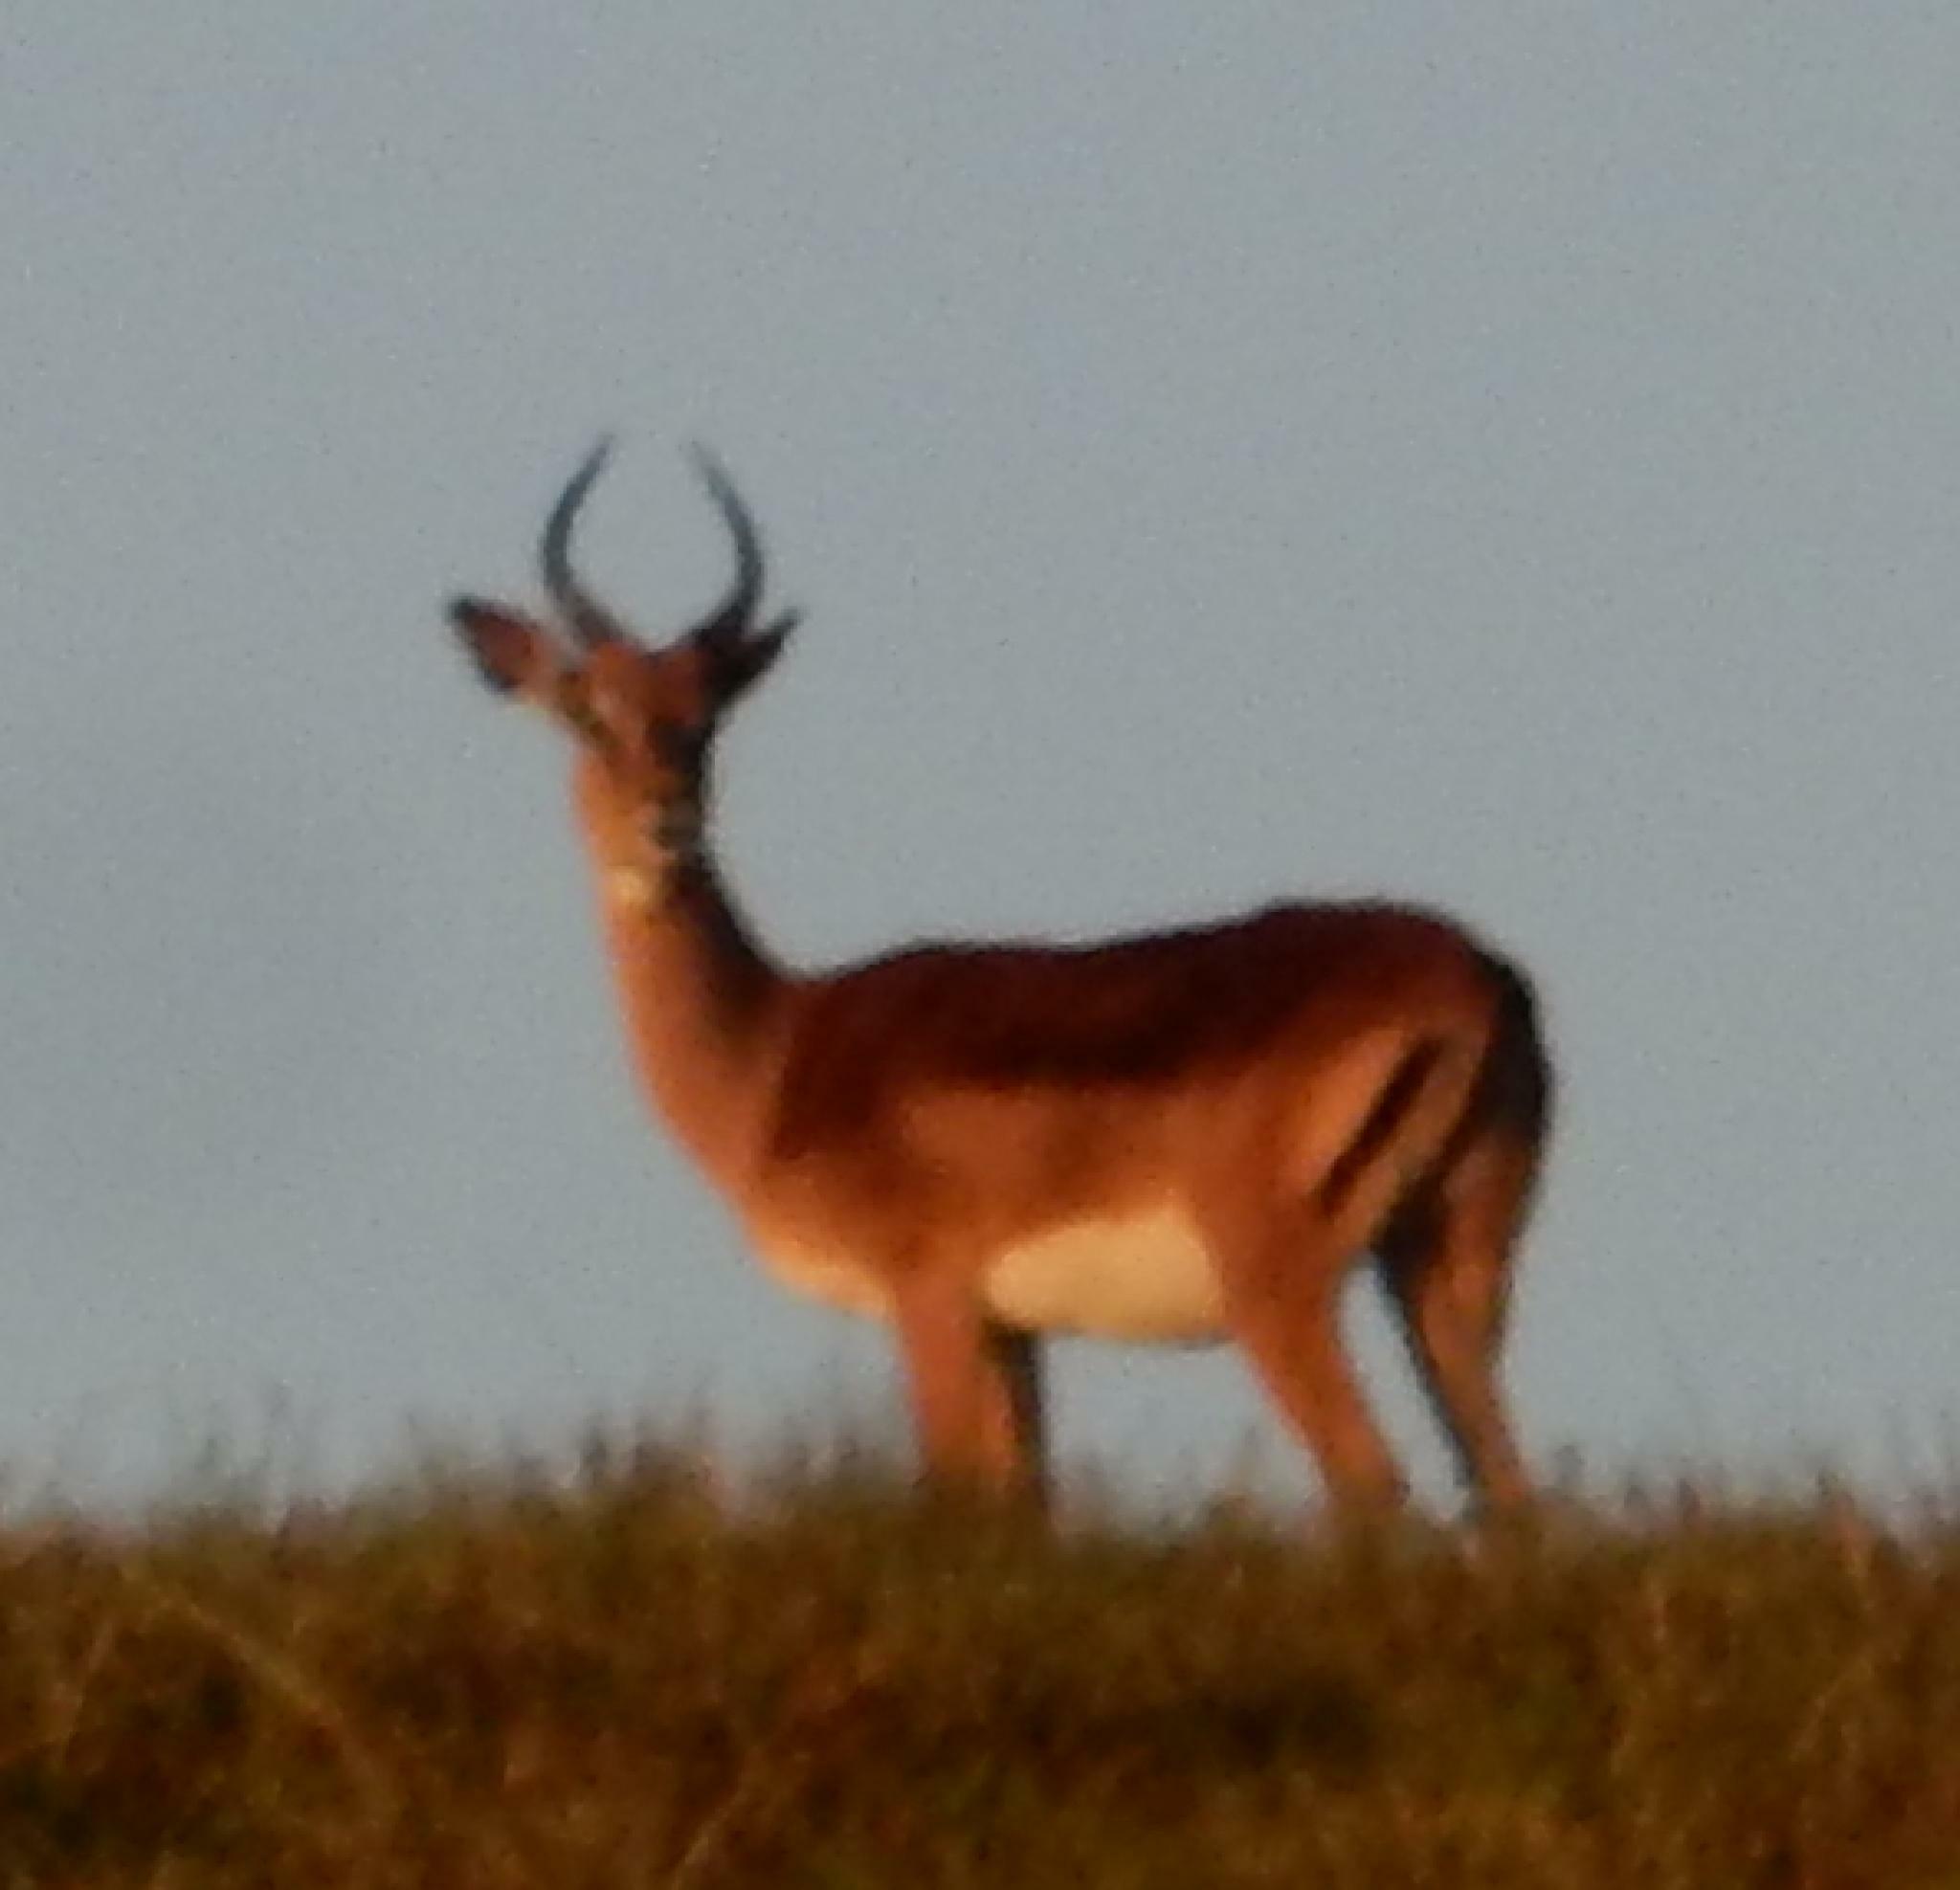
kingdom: Animalia
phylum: Chordata
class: Mammalia
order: Artiodactyla
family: Bovidae
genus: Aepyceros
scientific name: Aepyceros melampus
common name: Impala
